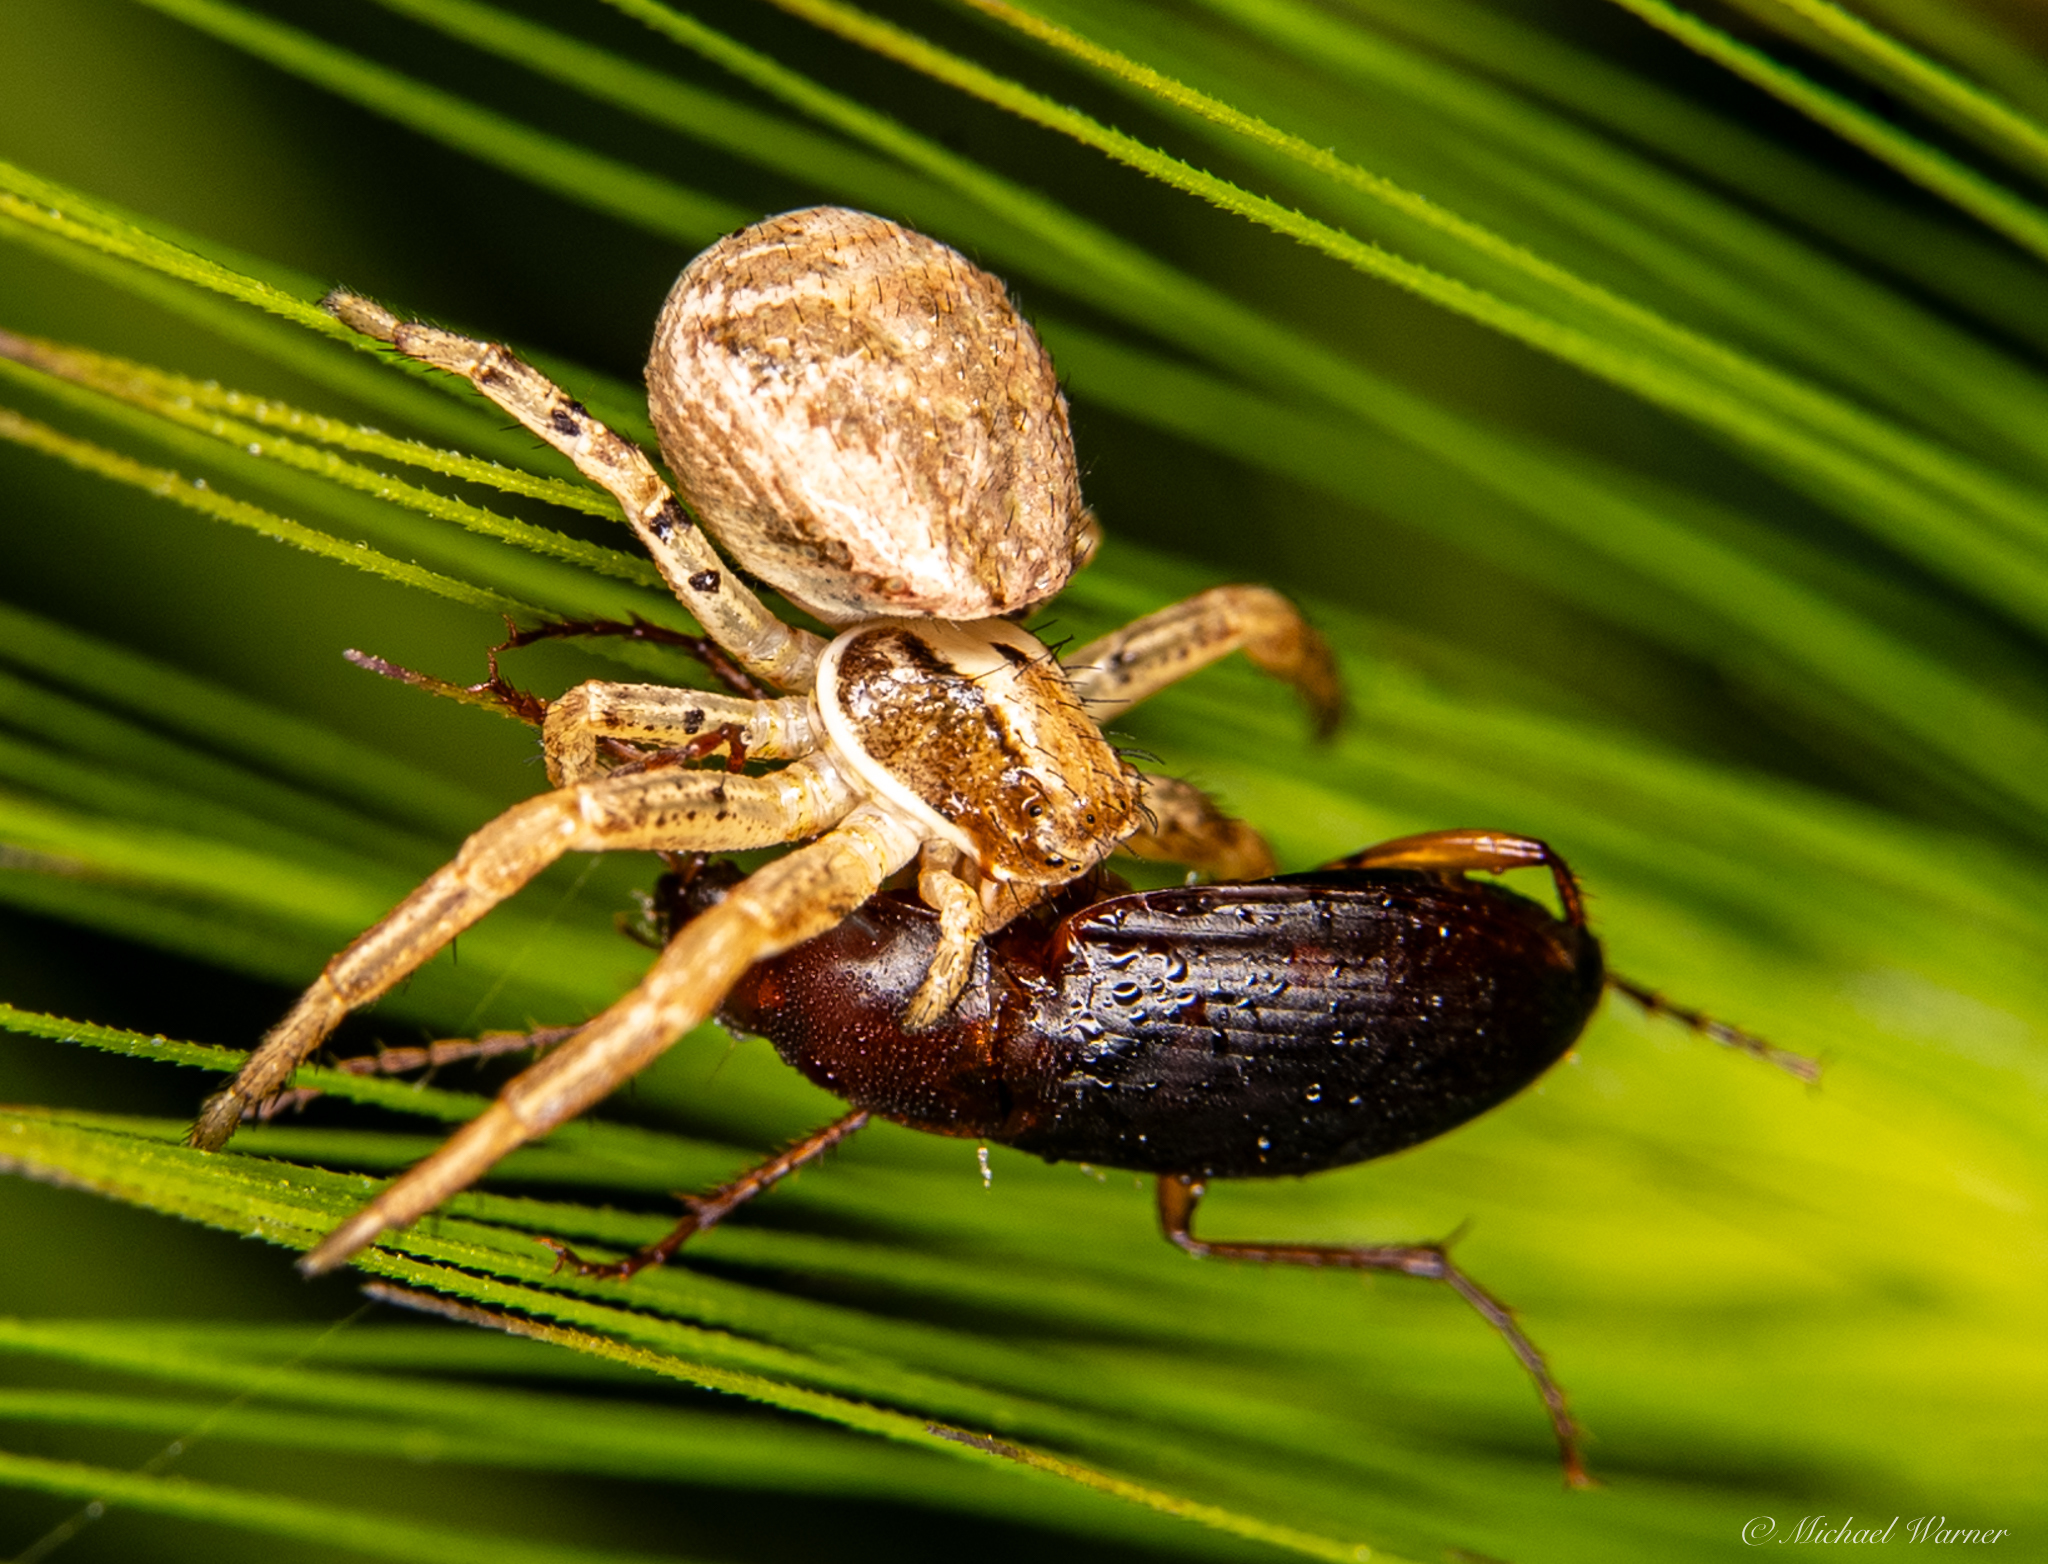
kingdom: Animalia
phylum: Arthropoda
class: Insecta
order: Coleoptera
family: Carabidae
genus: Calathus
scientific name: Calathus ruficollis
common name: Red-collared harp ground beetle
